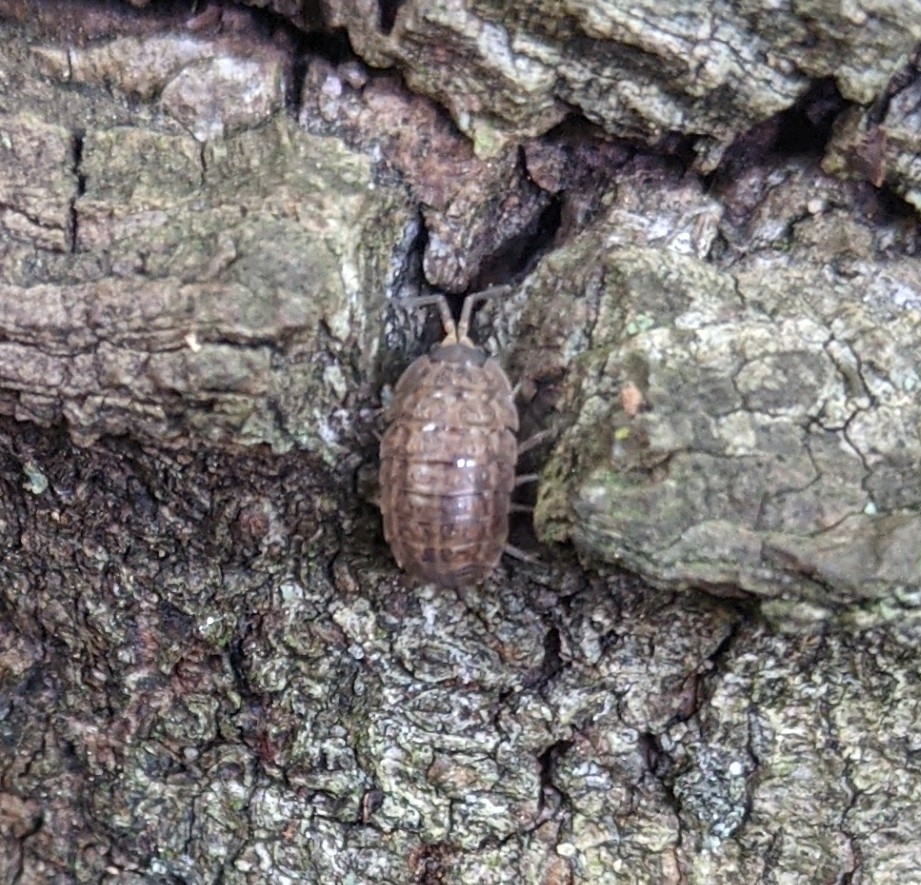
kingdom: Animalia
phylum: Arthropoda
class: Malacostraca
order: Isopoda
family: Trachelipodidae
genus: Trachelipus
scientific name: Trachelipus rathkii
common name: Isopod
